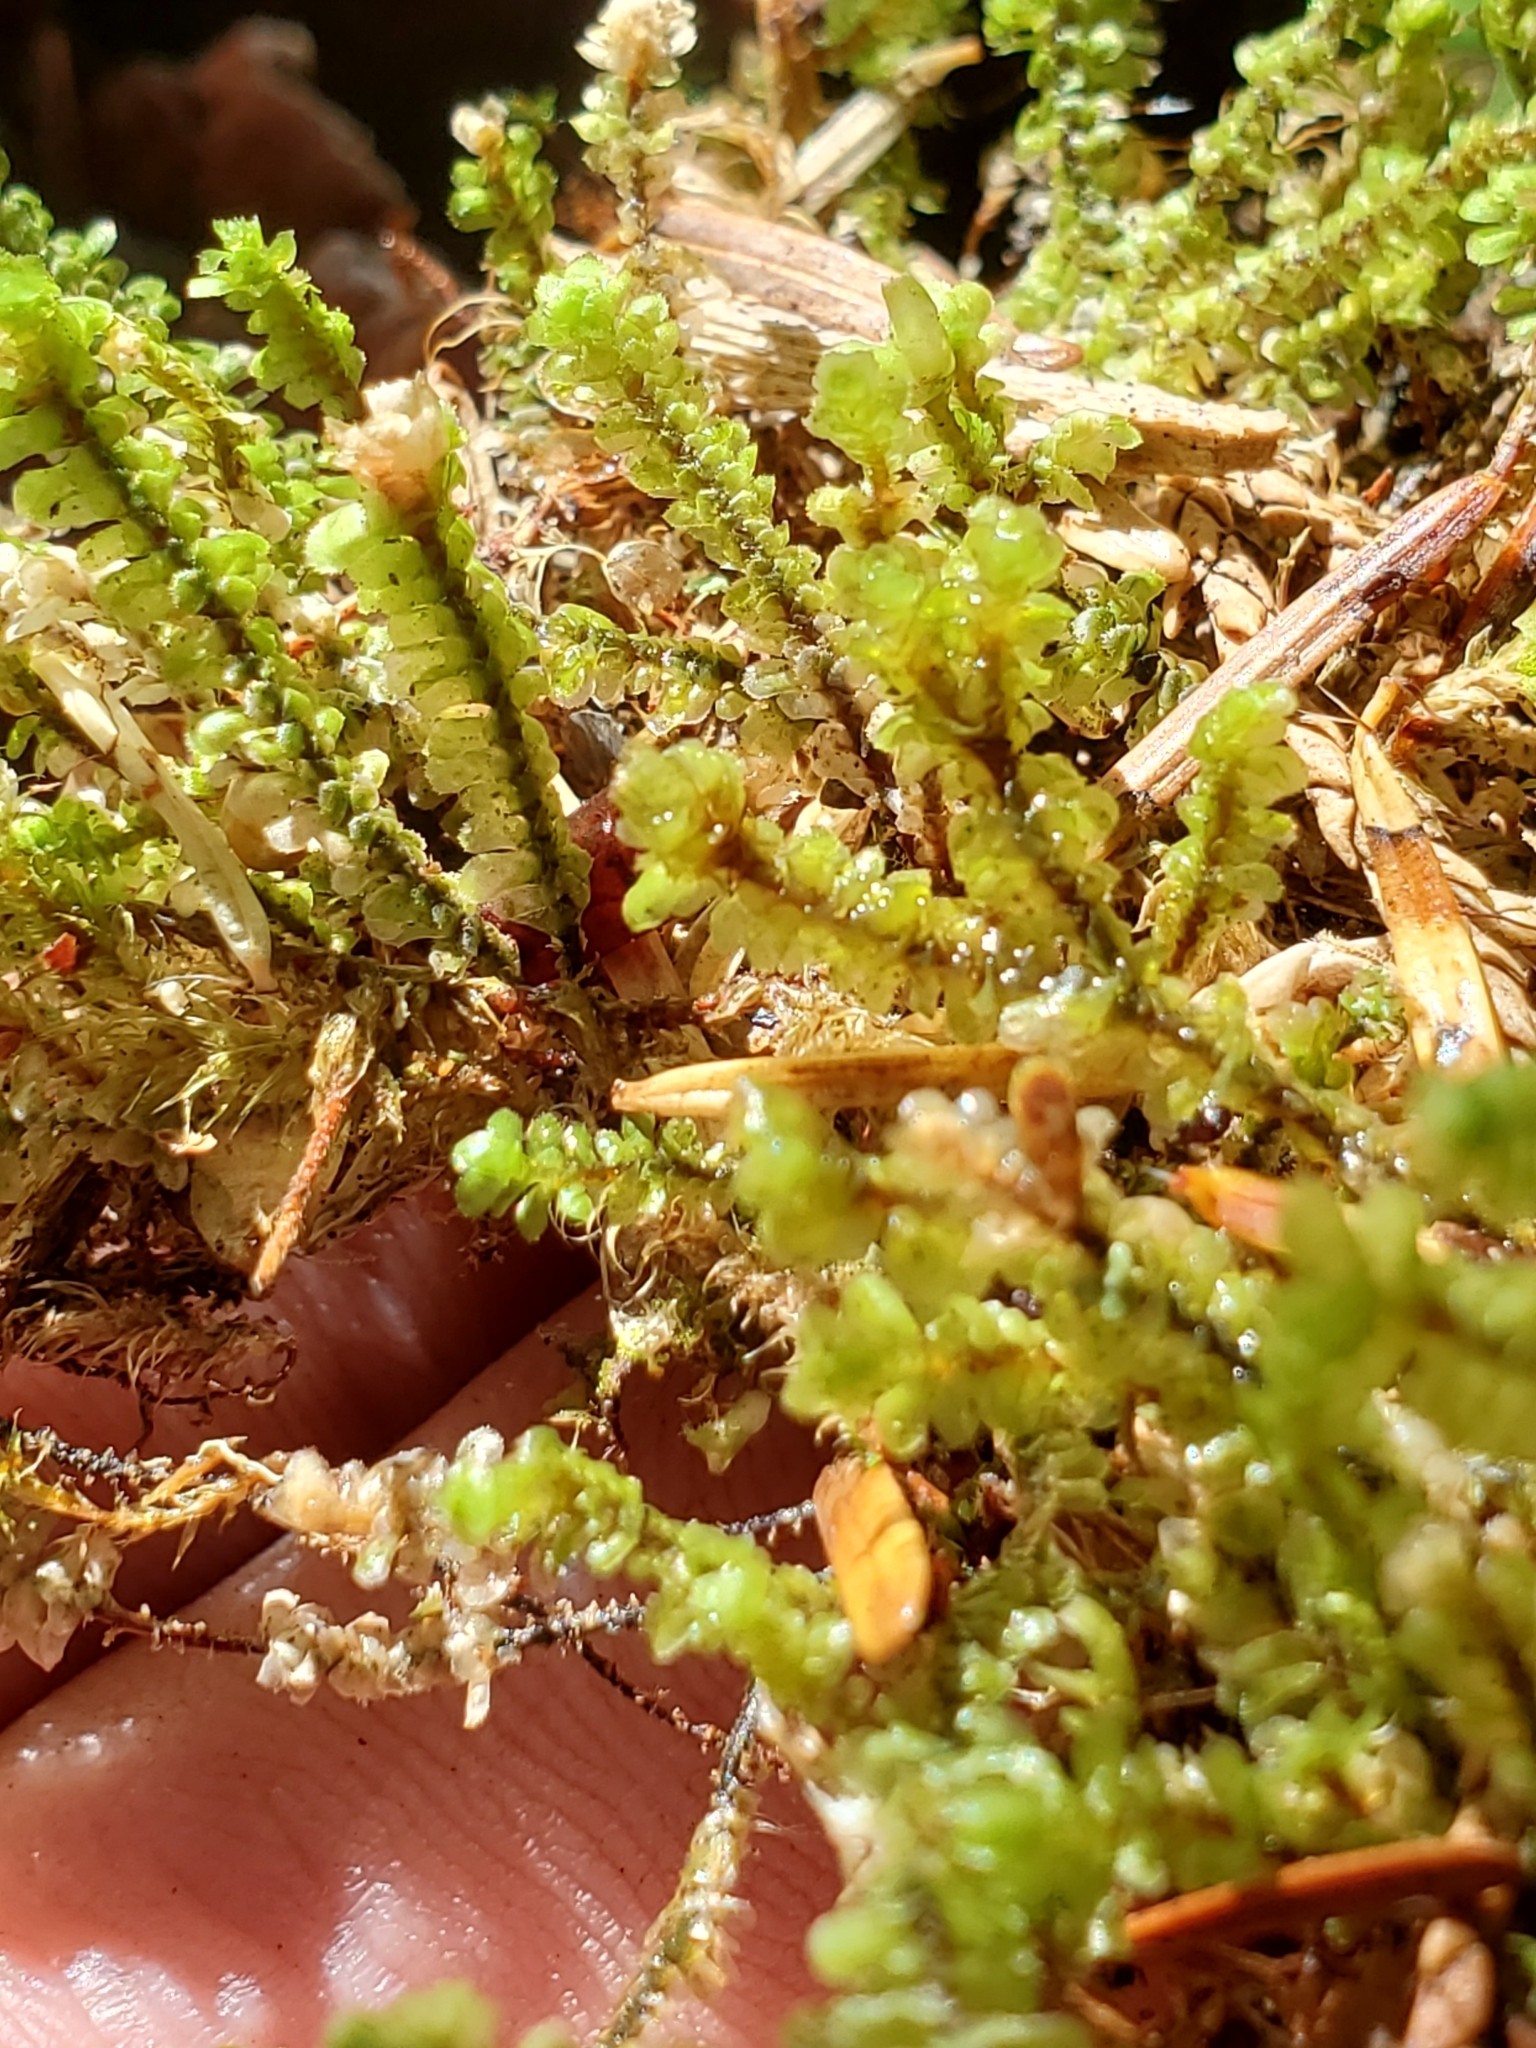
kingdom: Plantae
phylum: Marchantiophyta
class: Jungermanniopsida
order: Jungermanniales
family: Scapaniaceae
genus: Scapania
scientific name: Scapania bolanderi
